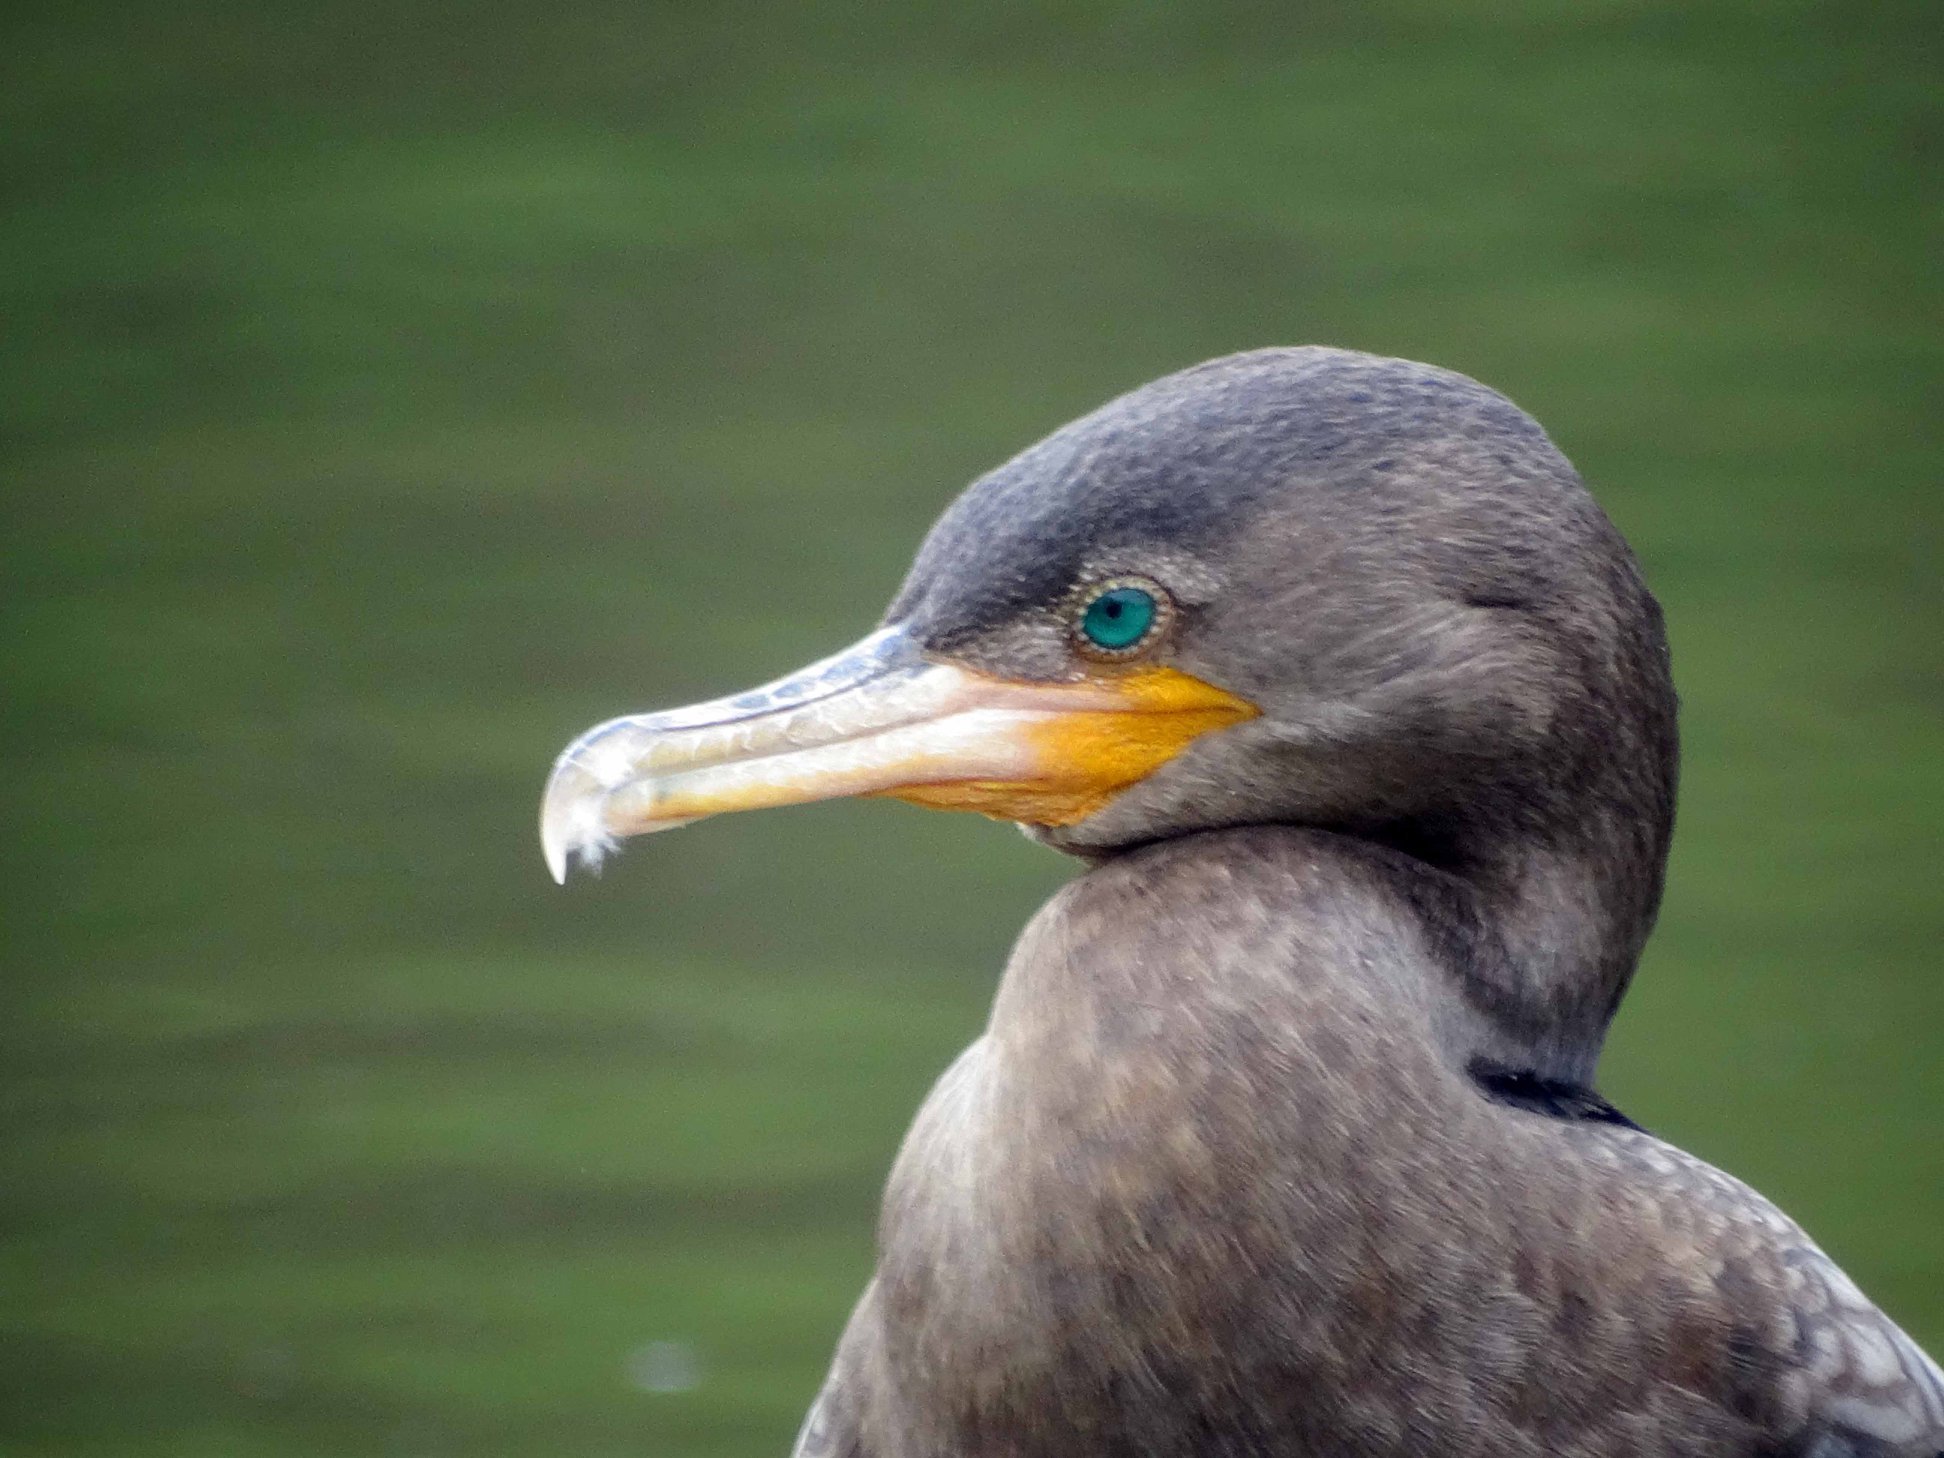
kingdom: Animalia
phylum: Chordata
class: Aves
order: Suliformes
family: Phalacrocoracidae
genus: Phalacrocorax
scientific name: Phalacrocorax brasilianus
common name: Neotropic cormorant
